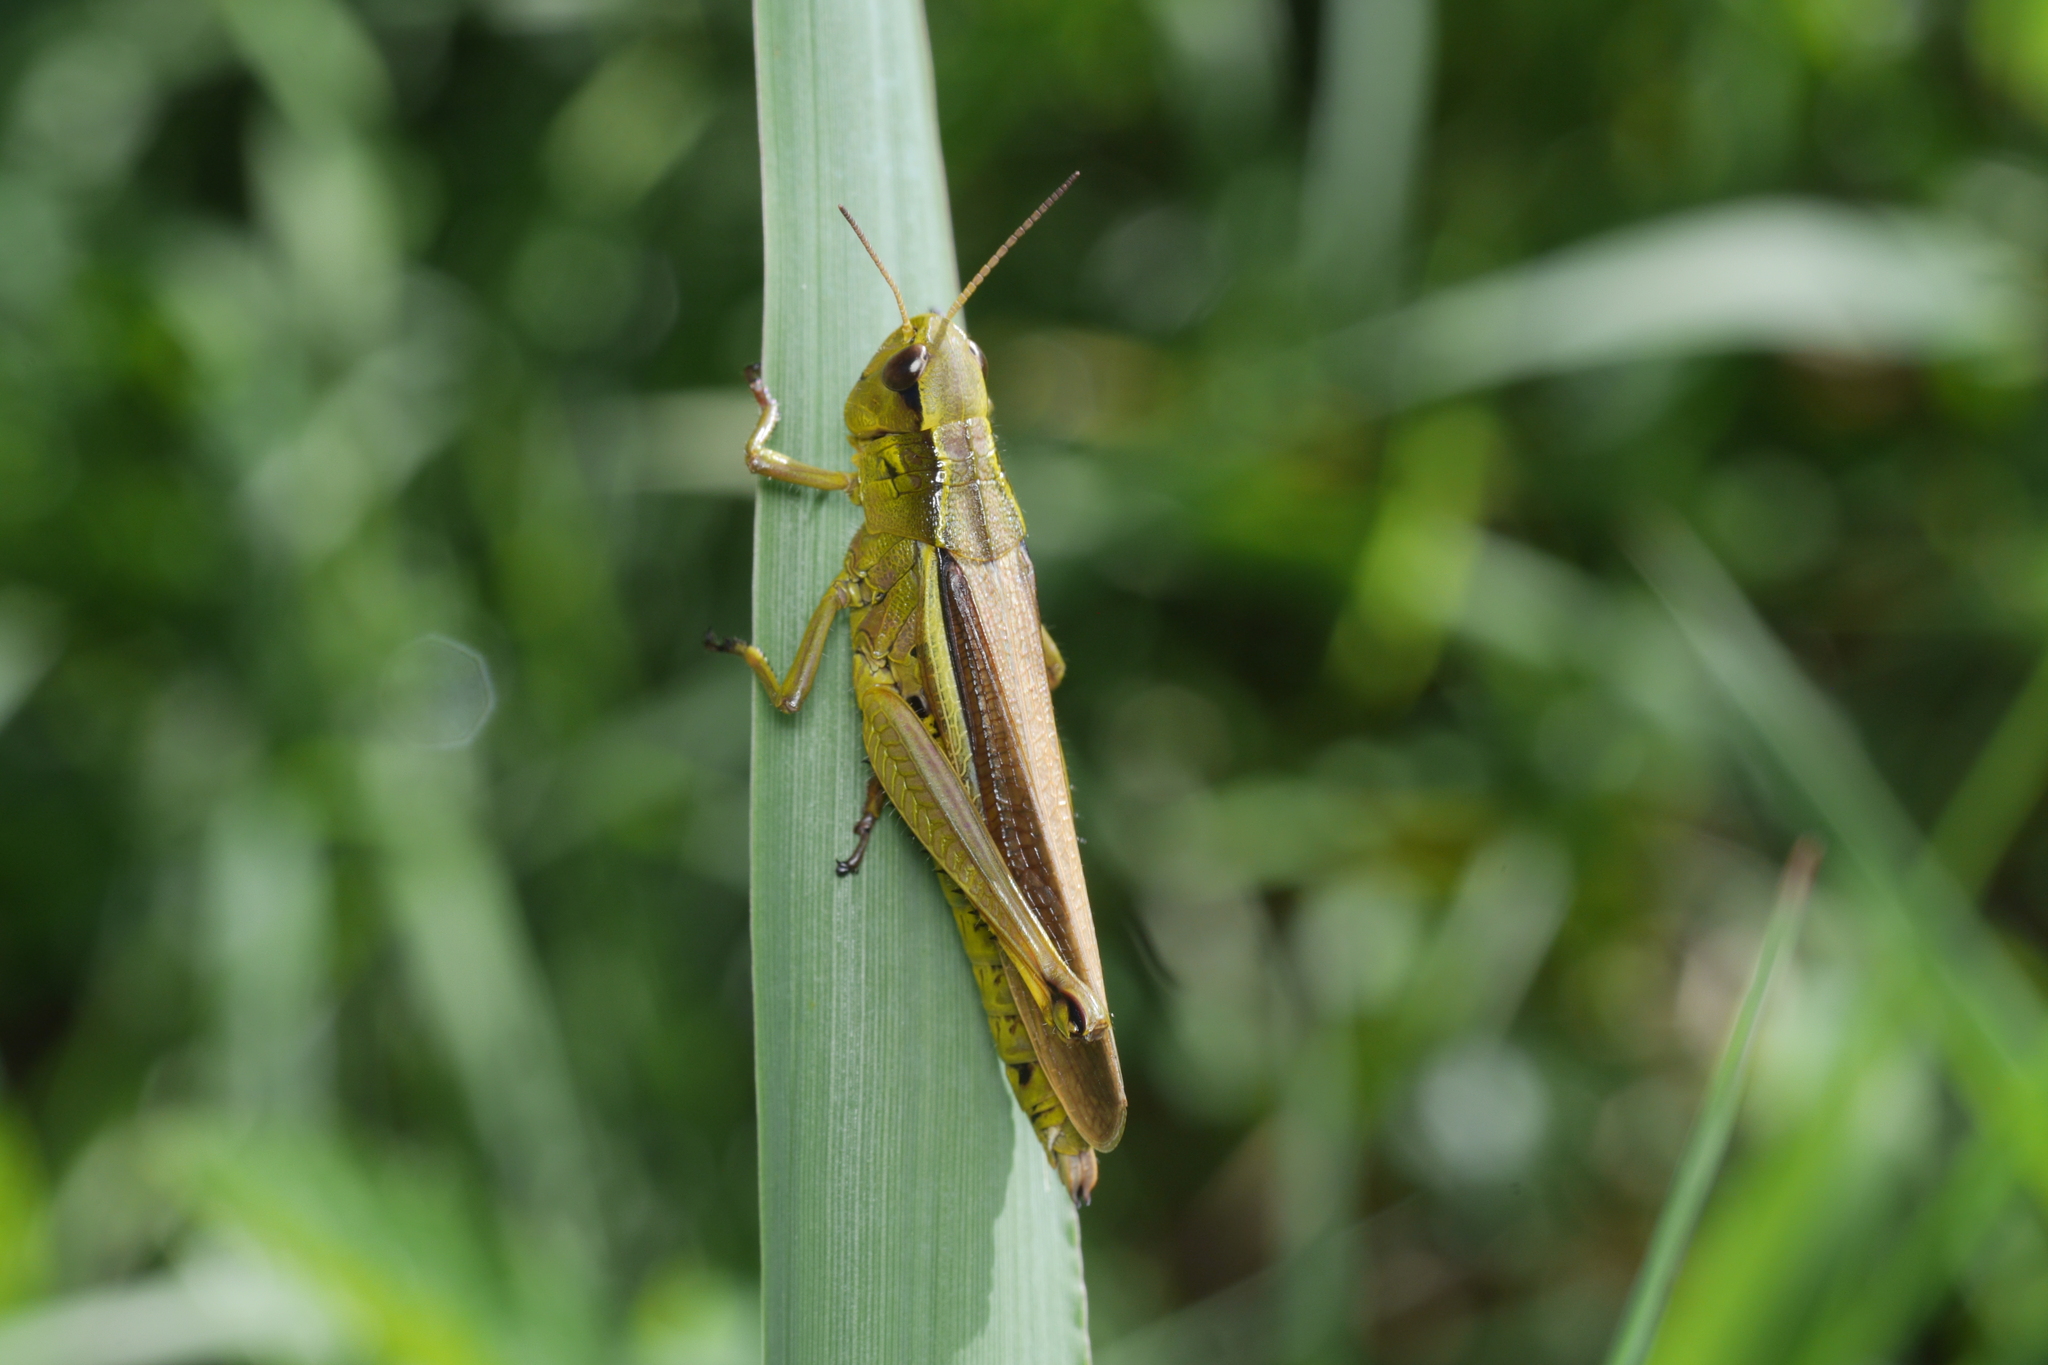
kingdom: Animalia
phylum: Arthropoda
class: Insecta
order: Orthoptera
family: Acrididae
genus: Stethophyma
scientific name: Stethophyma grossum
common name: Large marsh grasshopper
